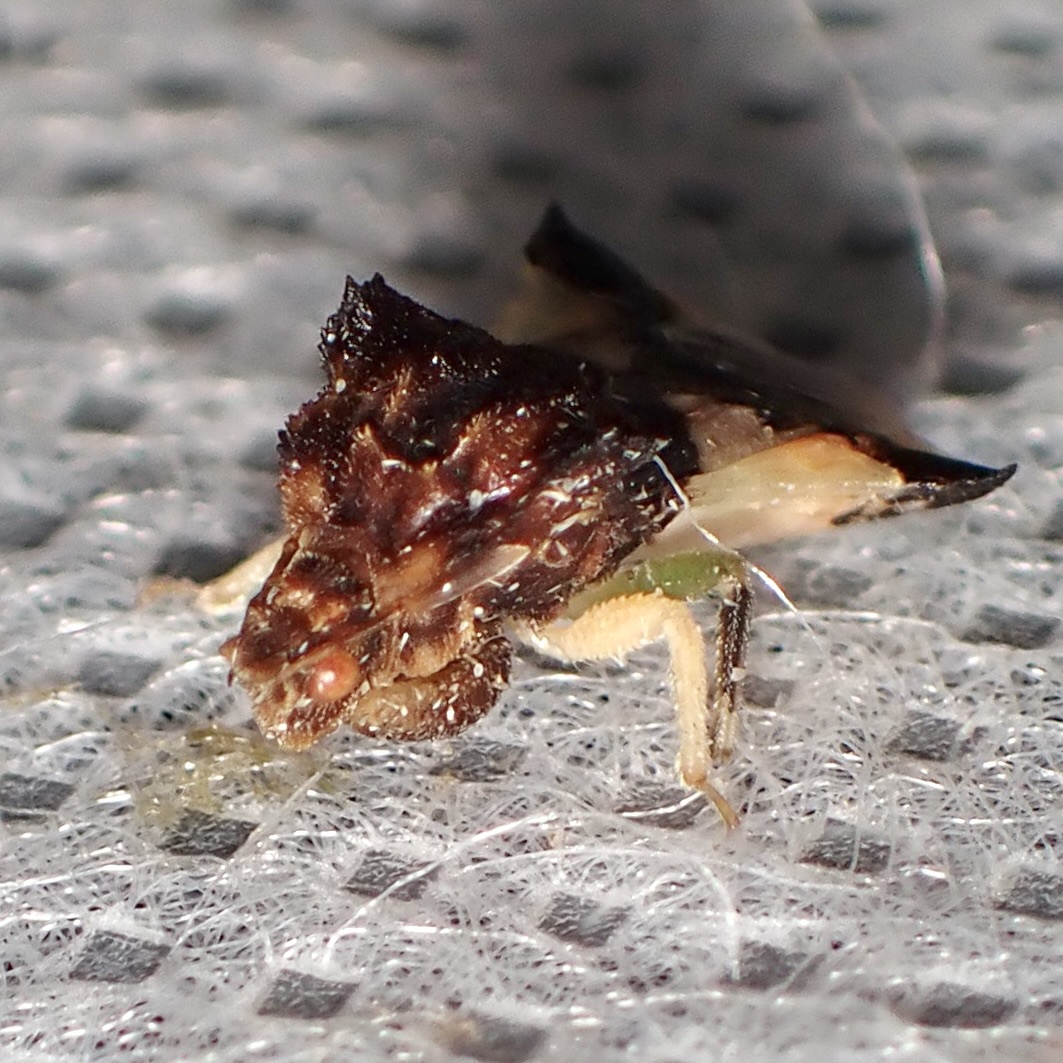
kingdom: Animalia
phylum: Arthropoda
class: Insecta
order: Hemiptera
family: Reduviidae
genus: Phymata
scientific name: Phymata saileri
